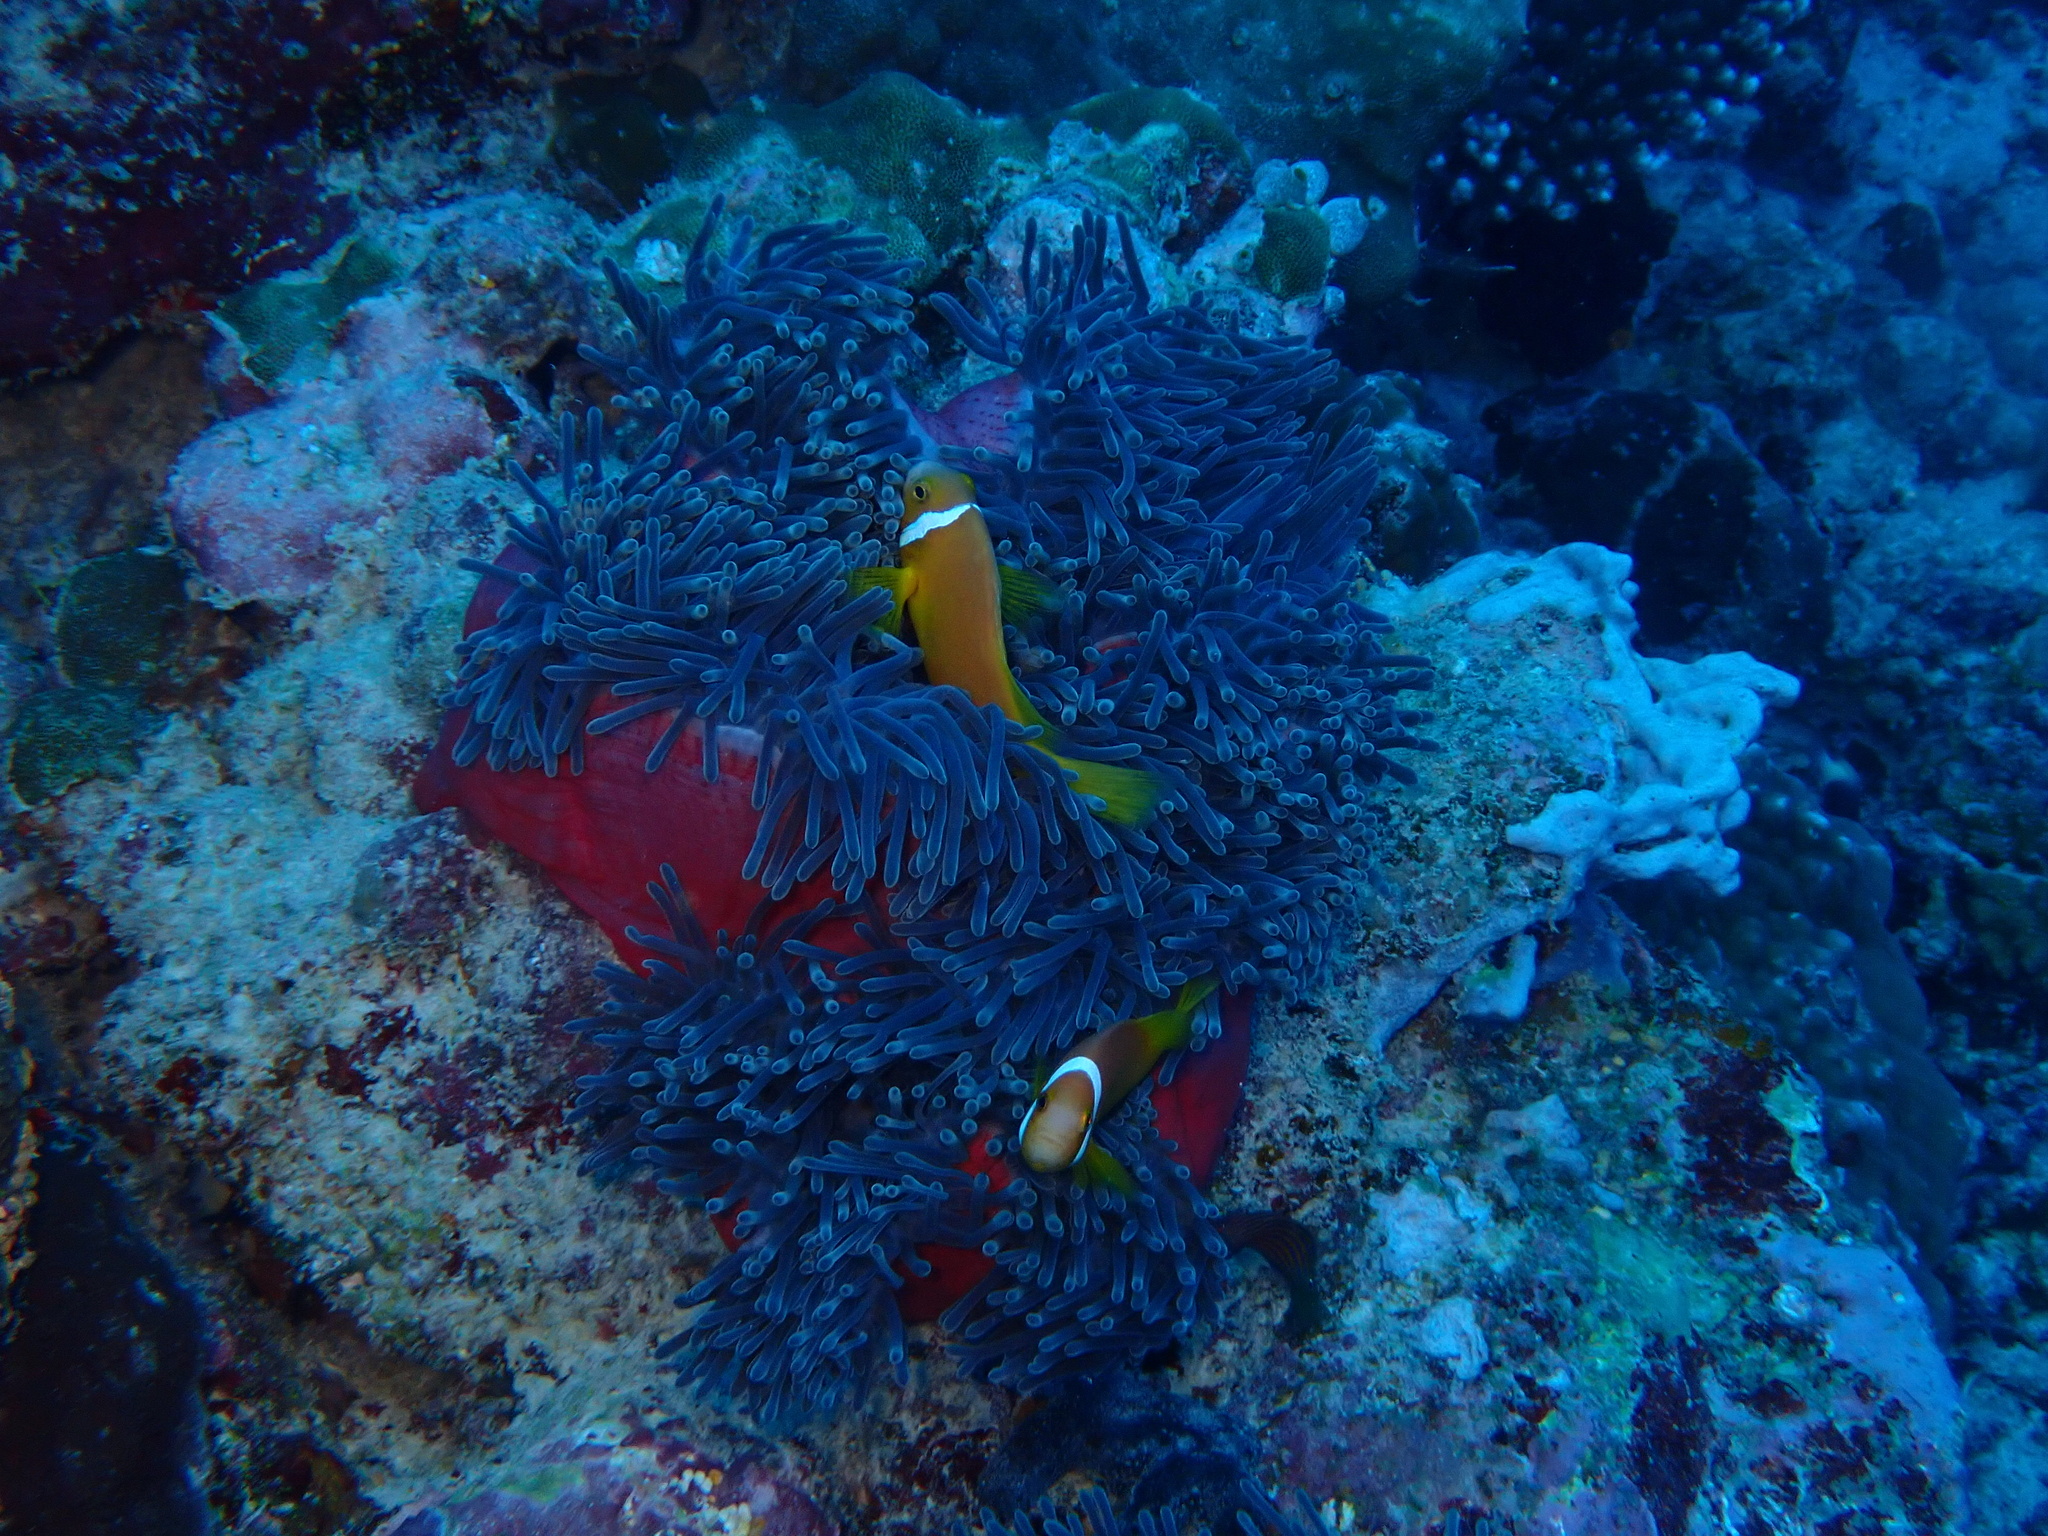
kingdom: Animalia
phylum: Chordata
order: Perciformes
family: Pomacentridae
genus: Amphiprion
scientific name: Amphiprion nigripes
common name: Maldive anemonefish
